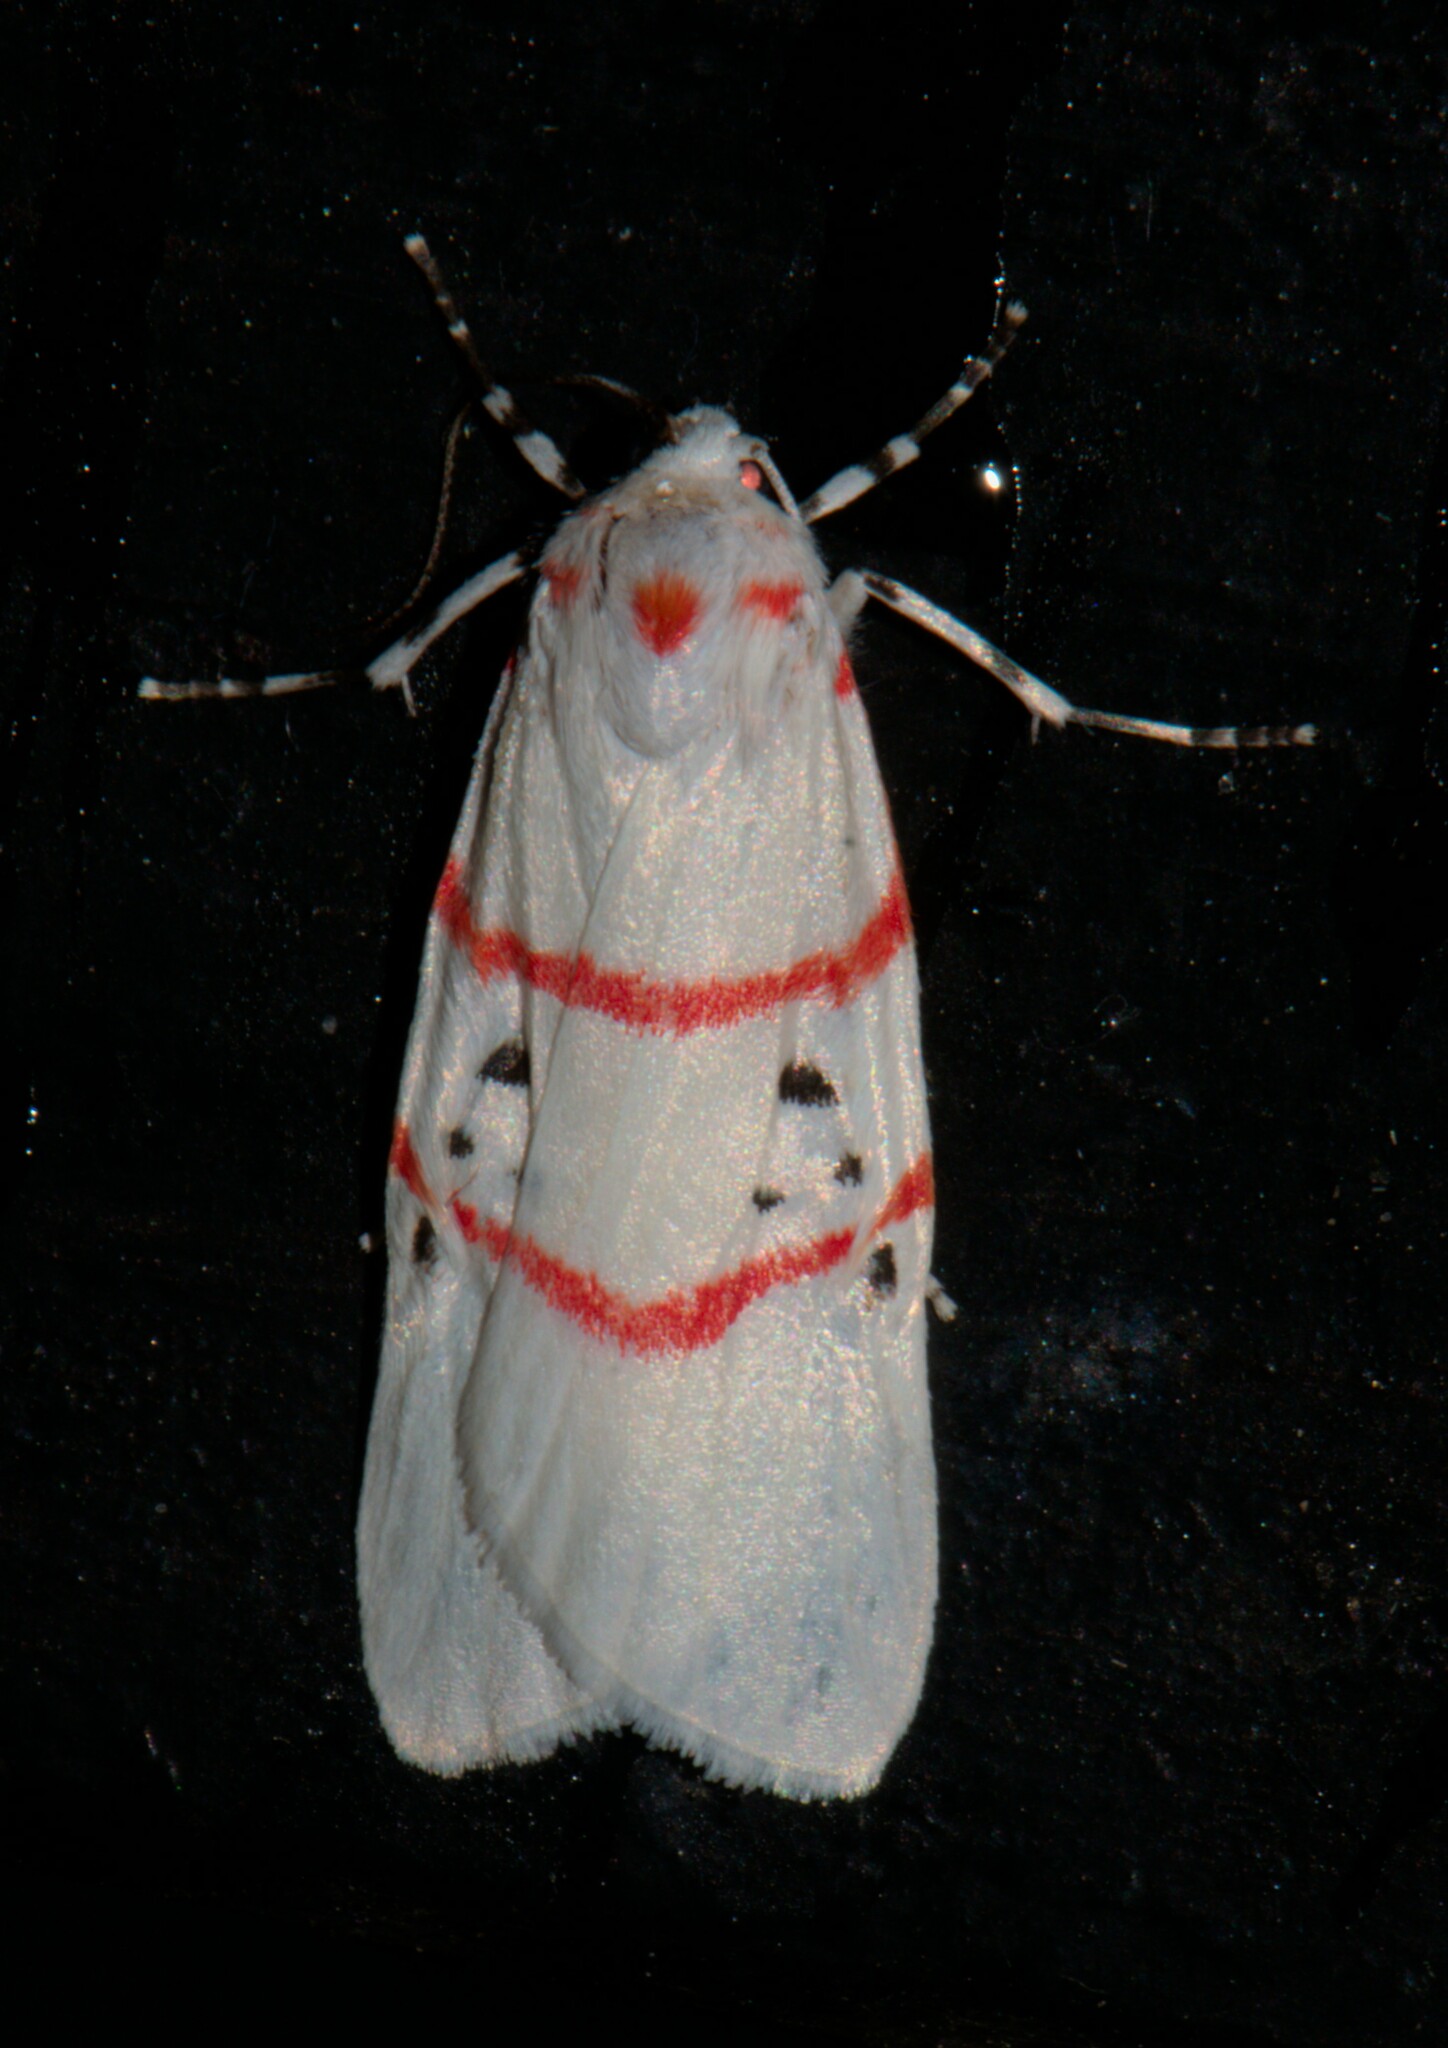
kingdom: Animalia
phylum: Arthropoda
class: Insecta
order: Lepidoptera
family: Erebidae
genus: Cyana
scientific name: Cyana adita
